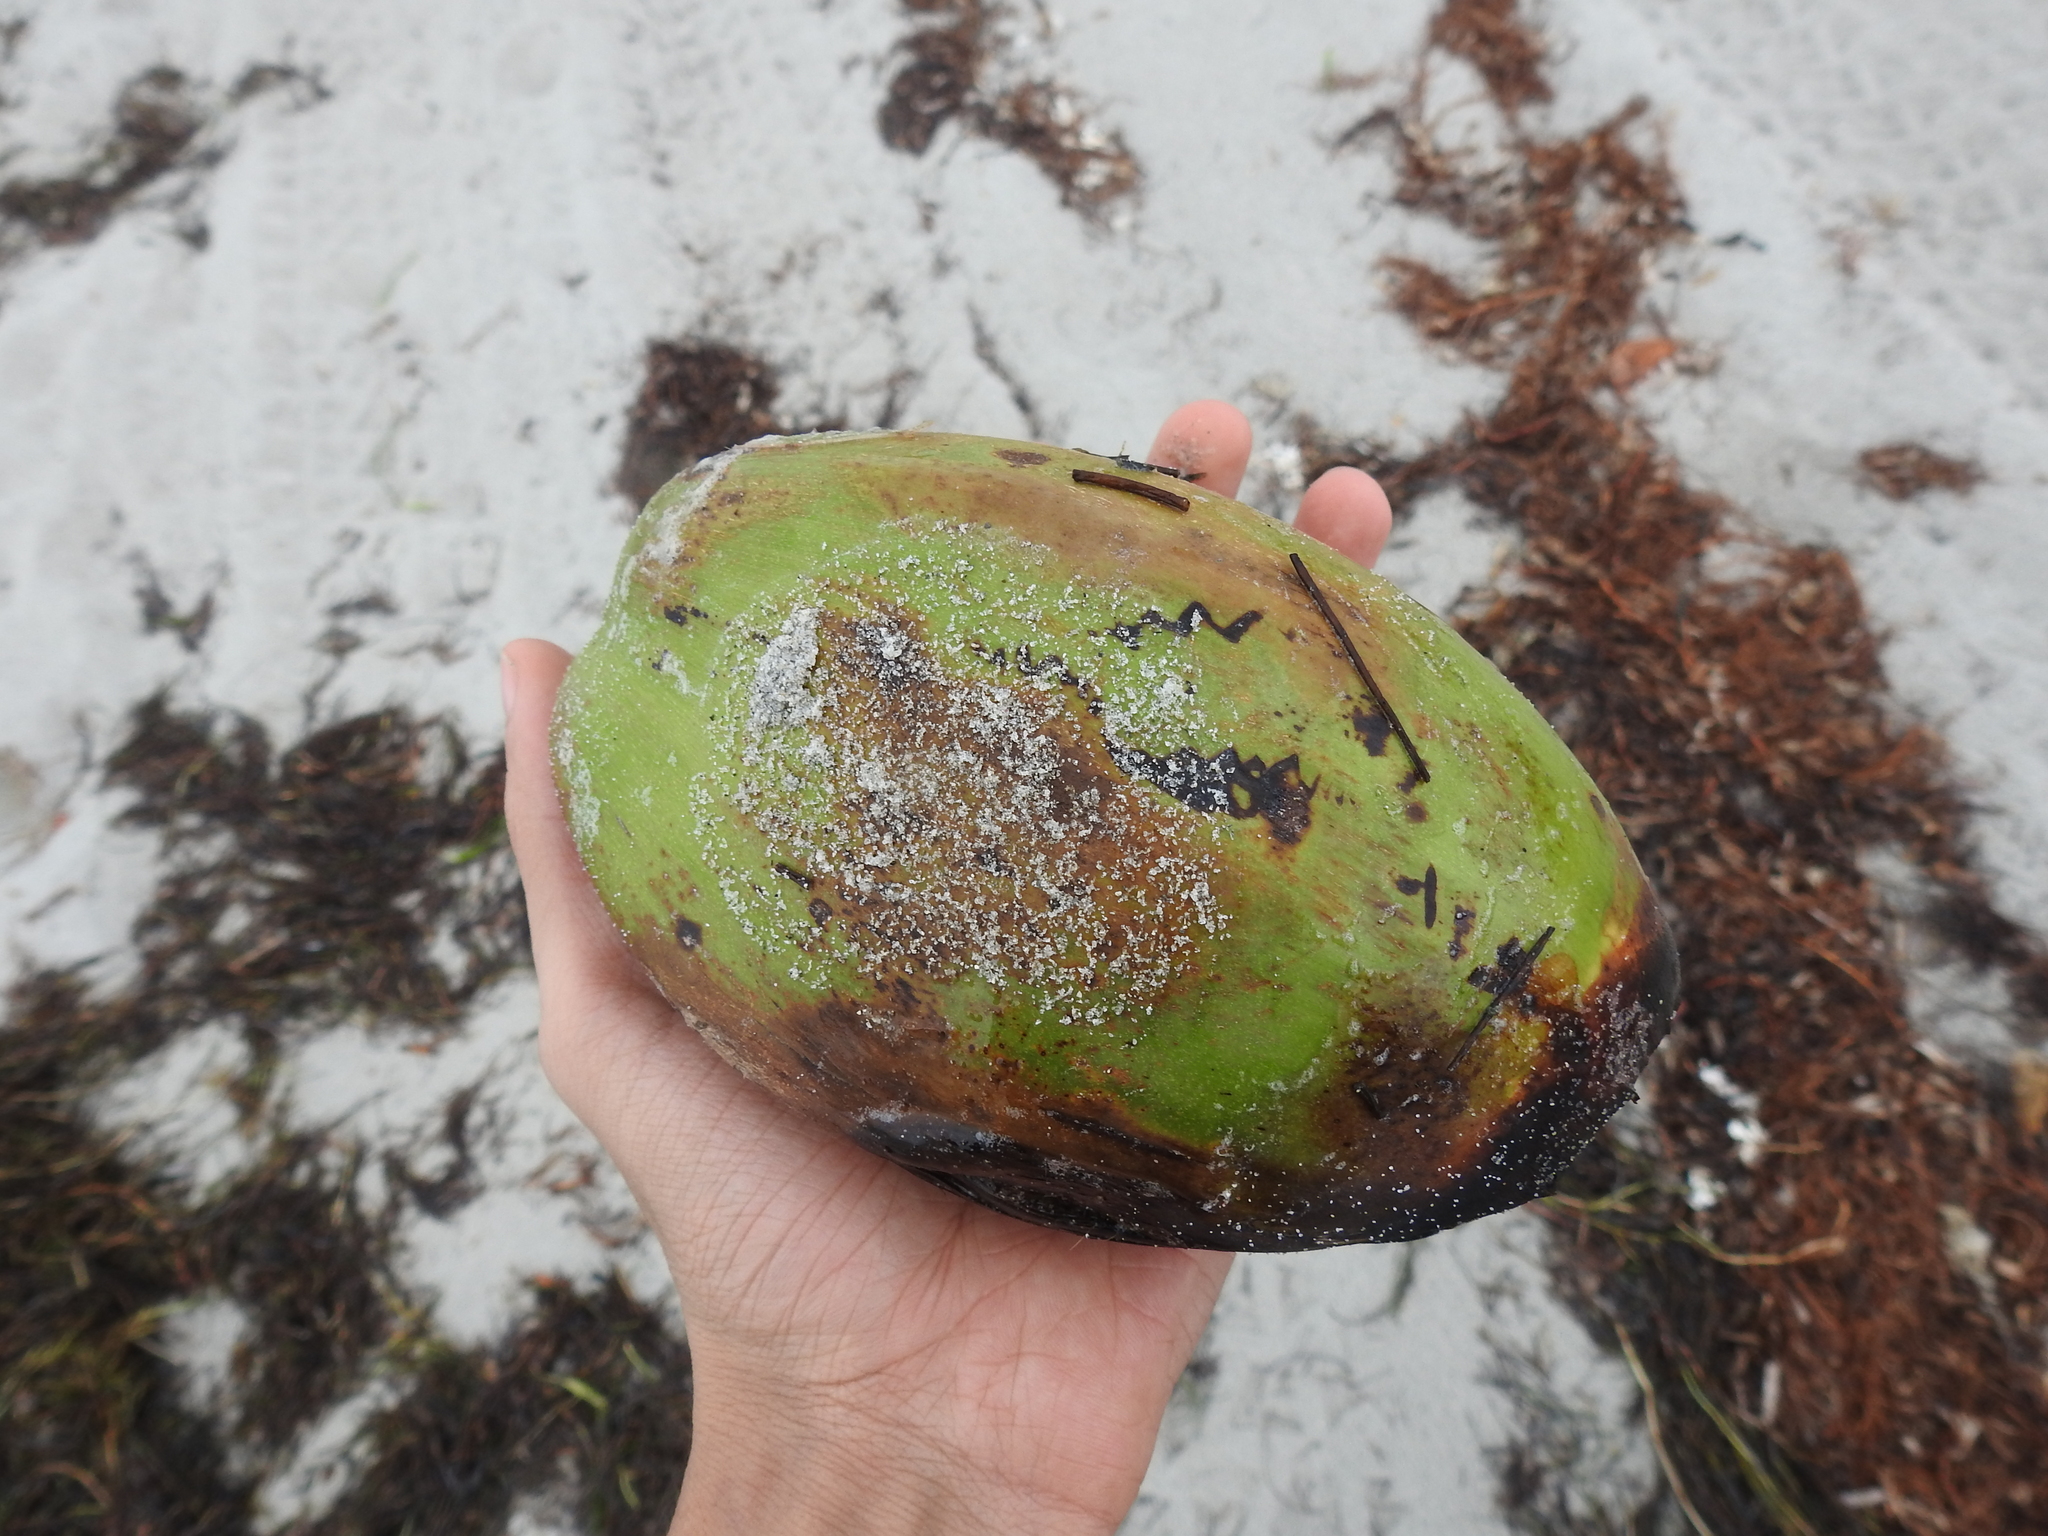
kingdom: Plantae
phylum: Tracheophyta
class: Liliopsida
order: Arecales
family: Arecaceae
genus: Cocos
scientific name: Cocos nucifera
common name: Coconut palm
